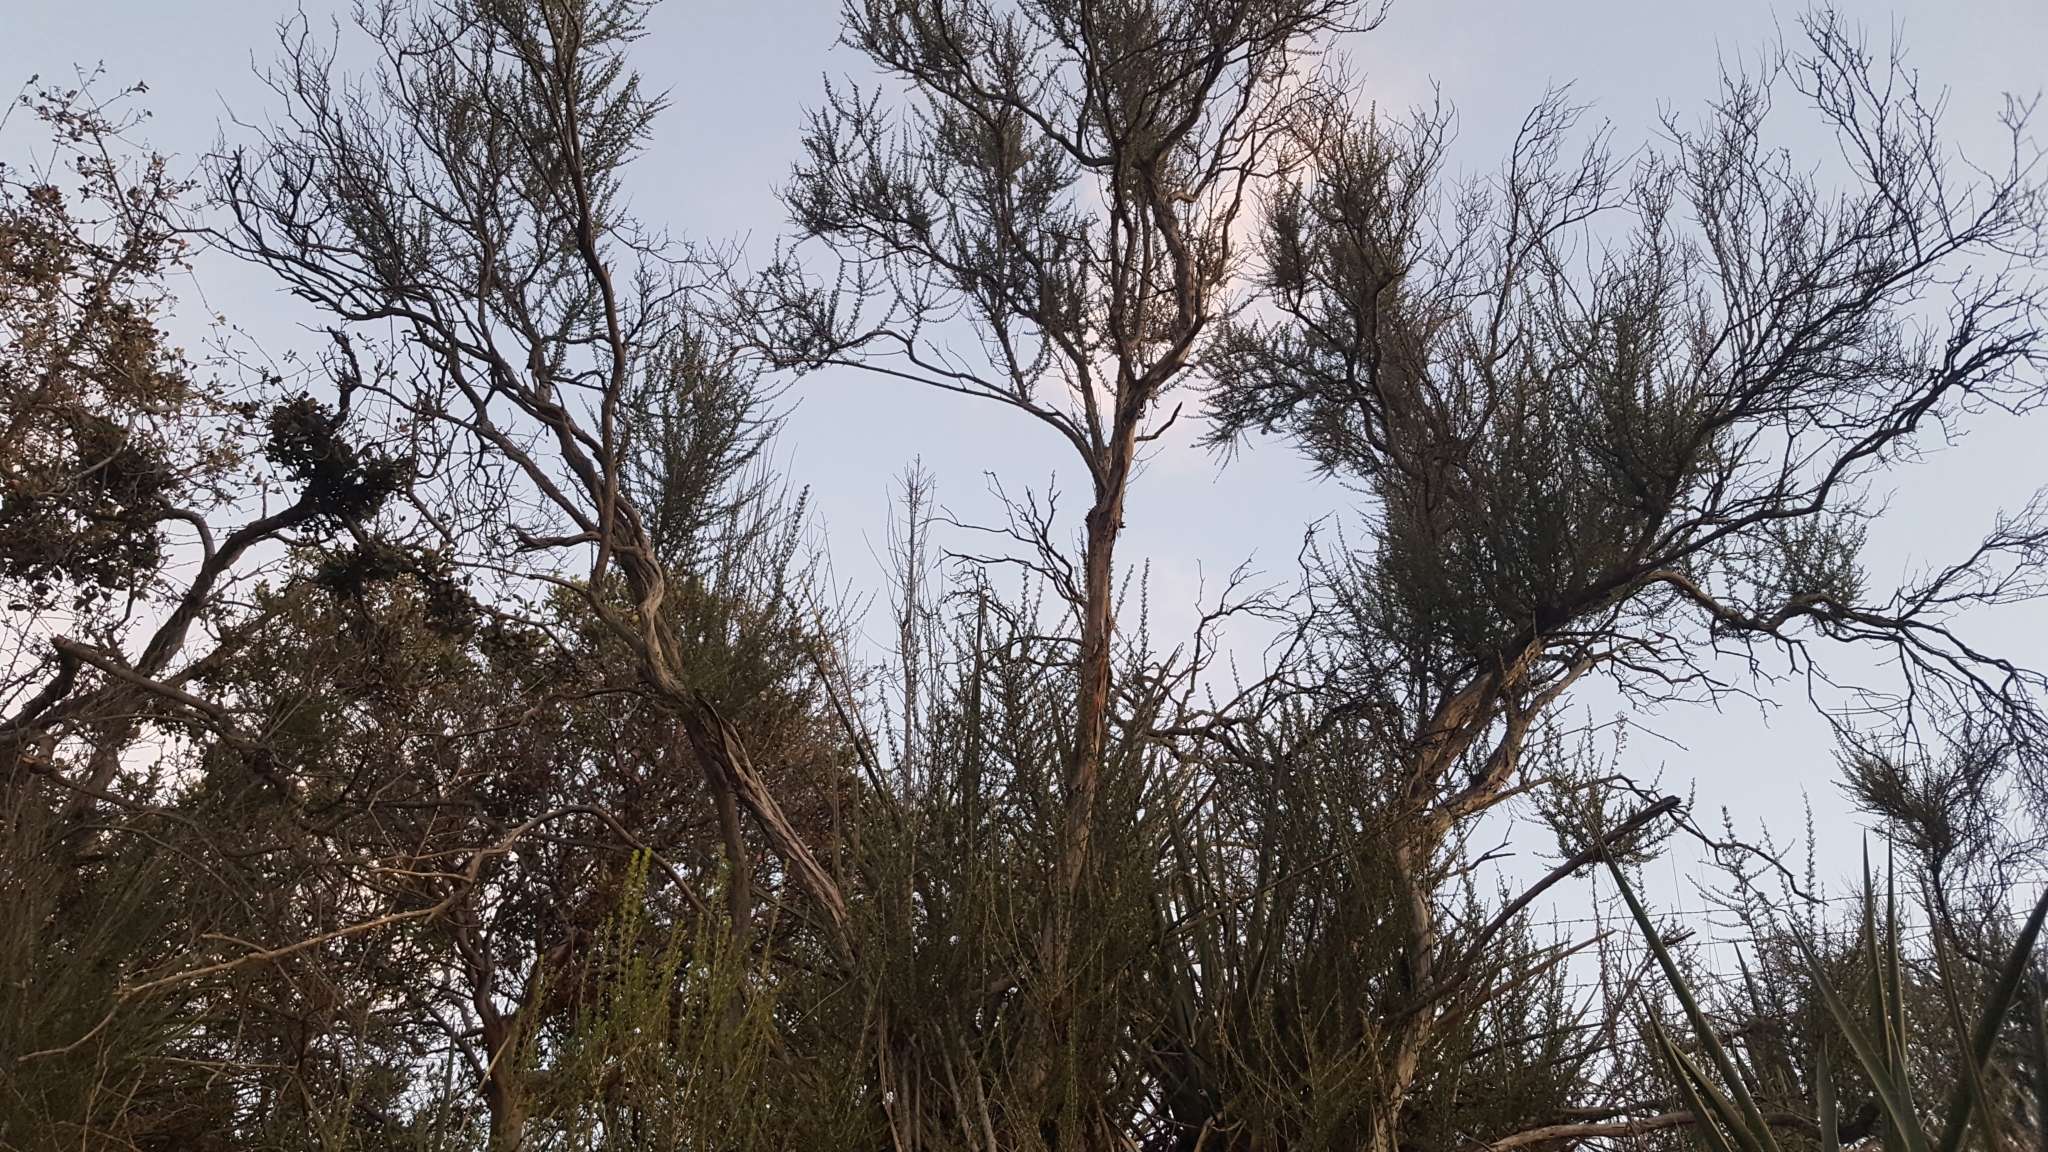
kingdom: Plantae
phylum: Tracheophyta
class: Magnoliopsida
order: Rosales
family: Rosaceae
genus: Adenostoma
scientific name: Adenostoma fasciculatum
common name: Chamise
